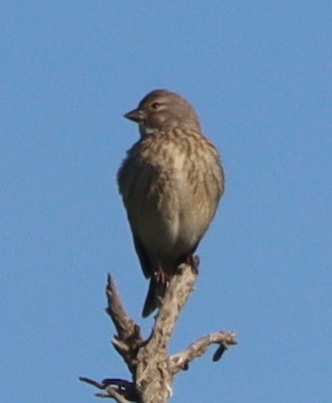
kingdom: Animalia
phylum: Chordata
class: Aves
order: Passeriformes
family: Fringillidae
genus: Linaria
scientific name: Linaria cannabina
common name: Common linnet
